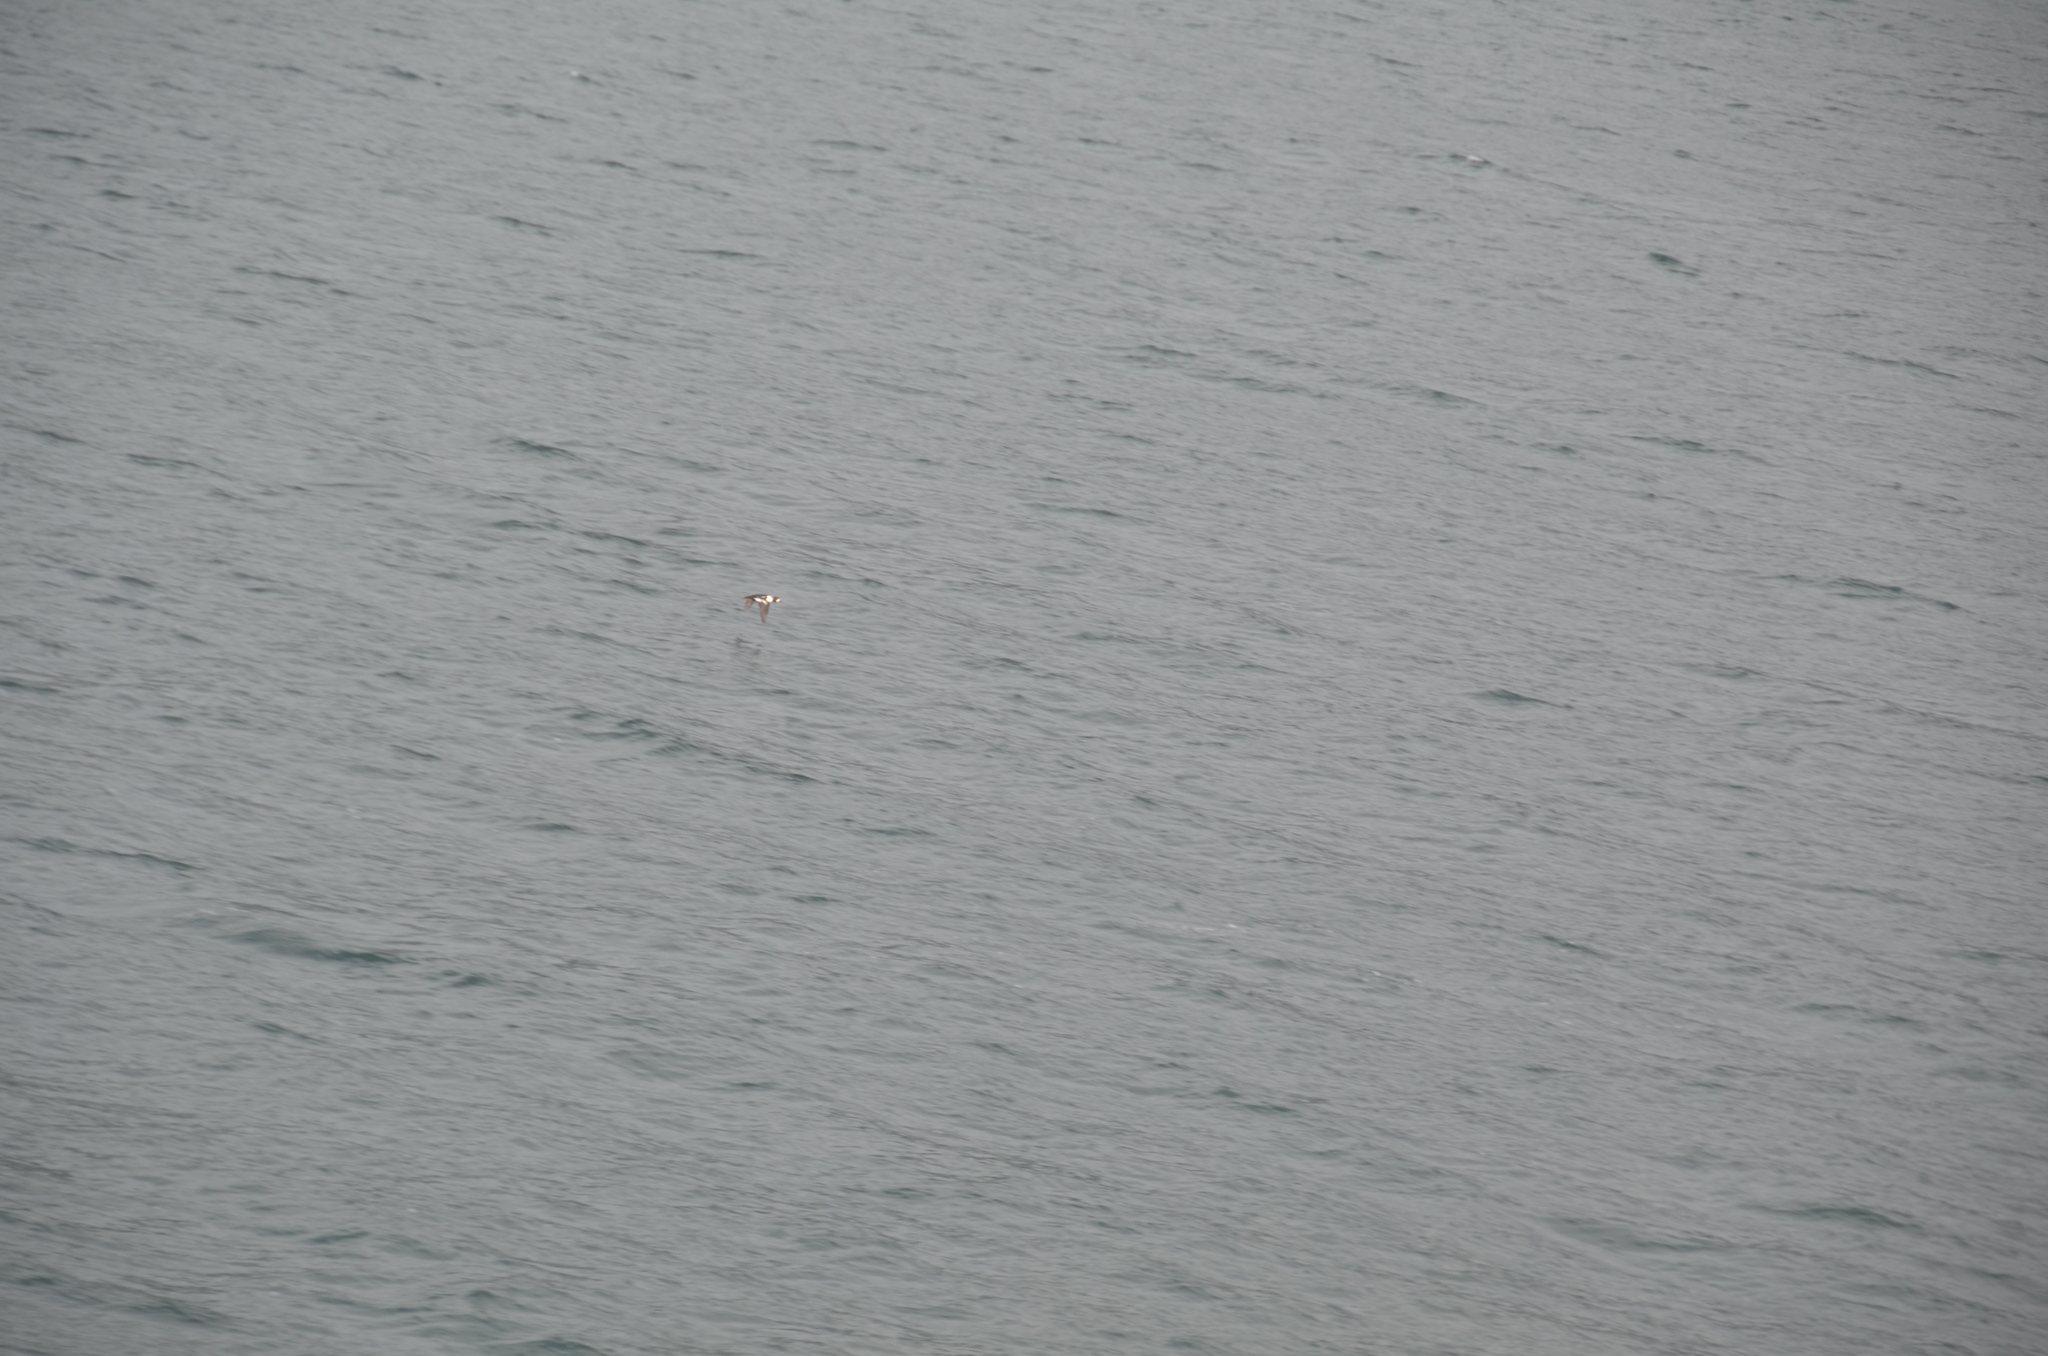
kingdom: Animalia
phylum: Chordata
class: Aves
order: Anseriformes
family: Anatidae
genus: Bucephala
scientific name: Bucephala islandica
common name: Barrow's goldeneye
